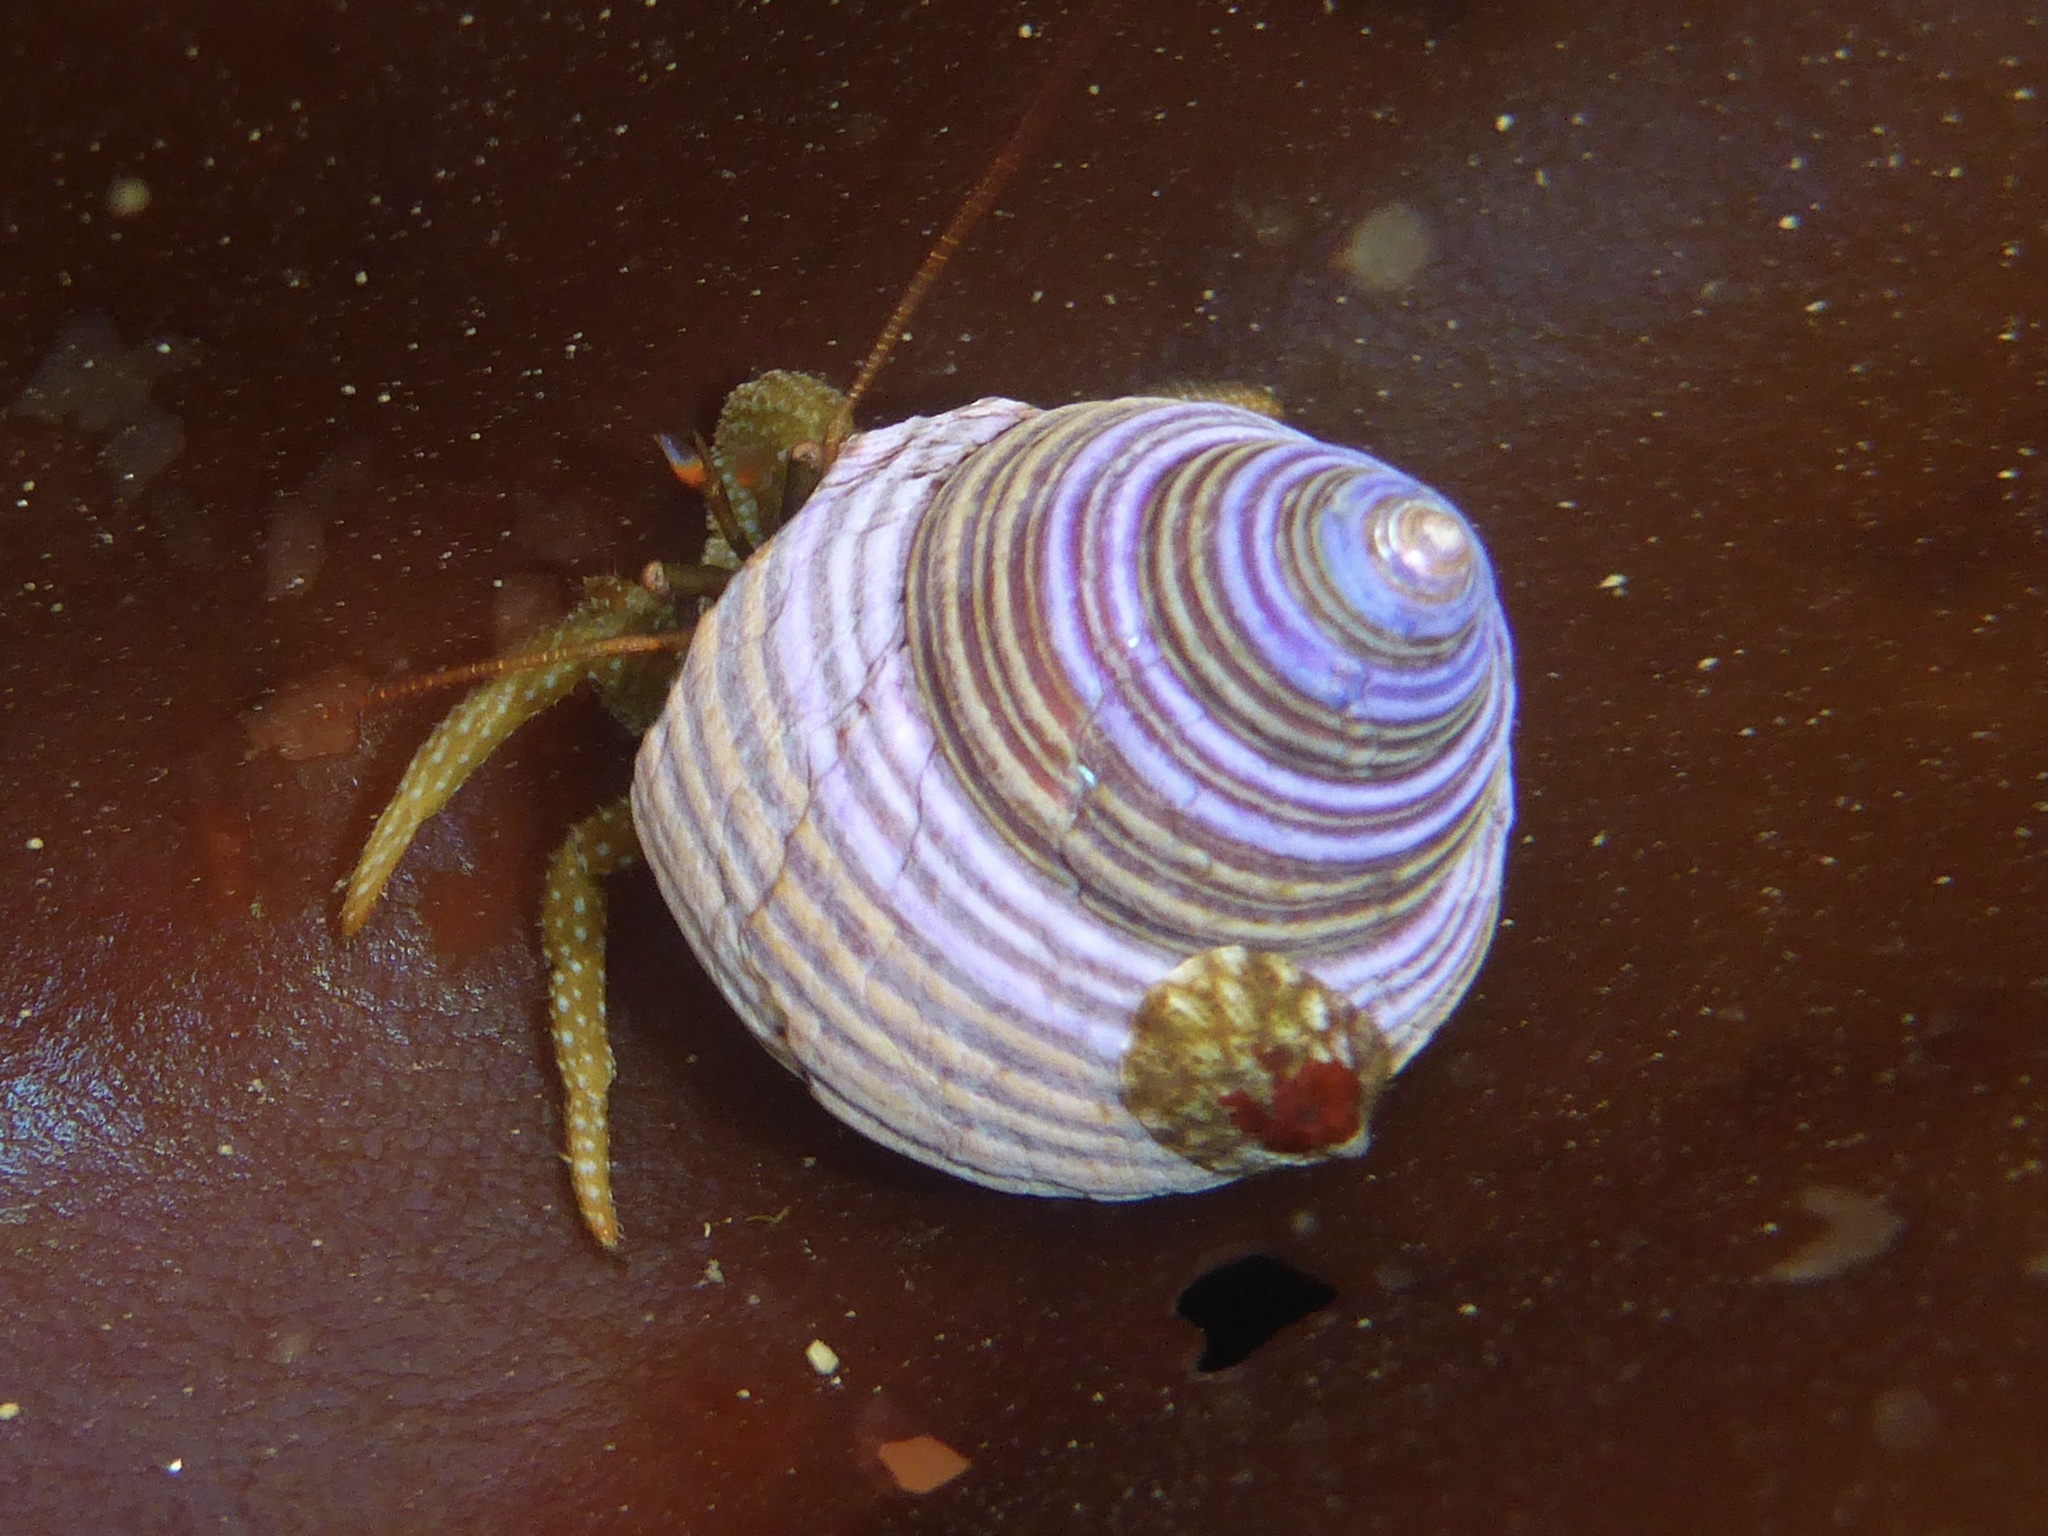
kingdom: Animalia
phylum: Mollusca
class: Gastropoda
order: Trochida
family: Calliostomatidae
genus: Calliostoma
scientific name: Calliostoma ligatum
